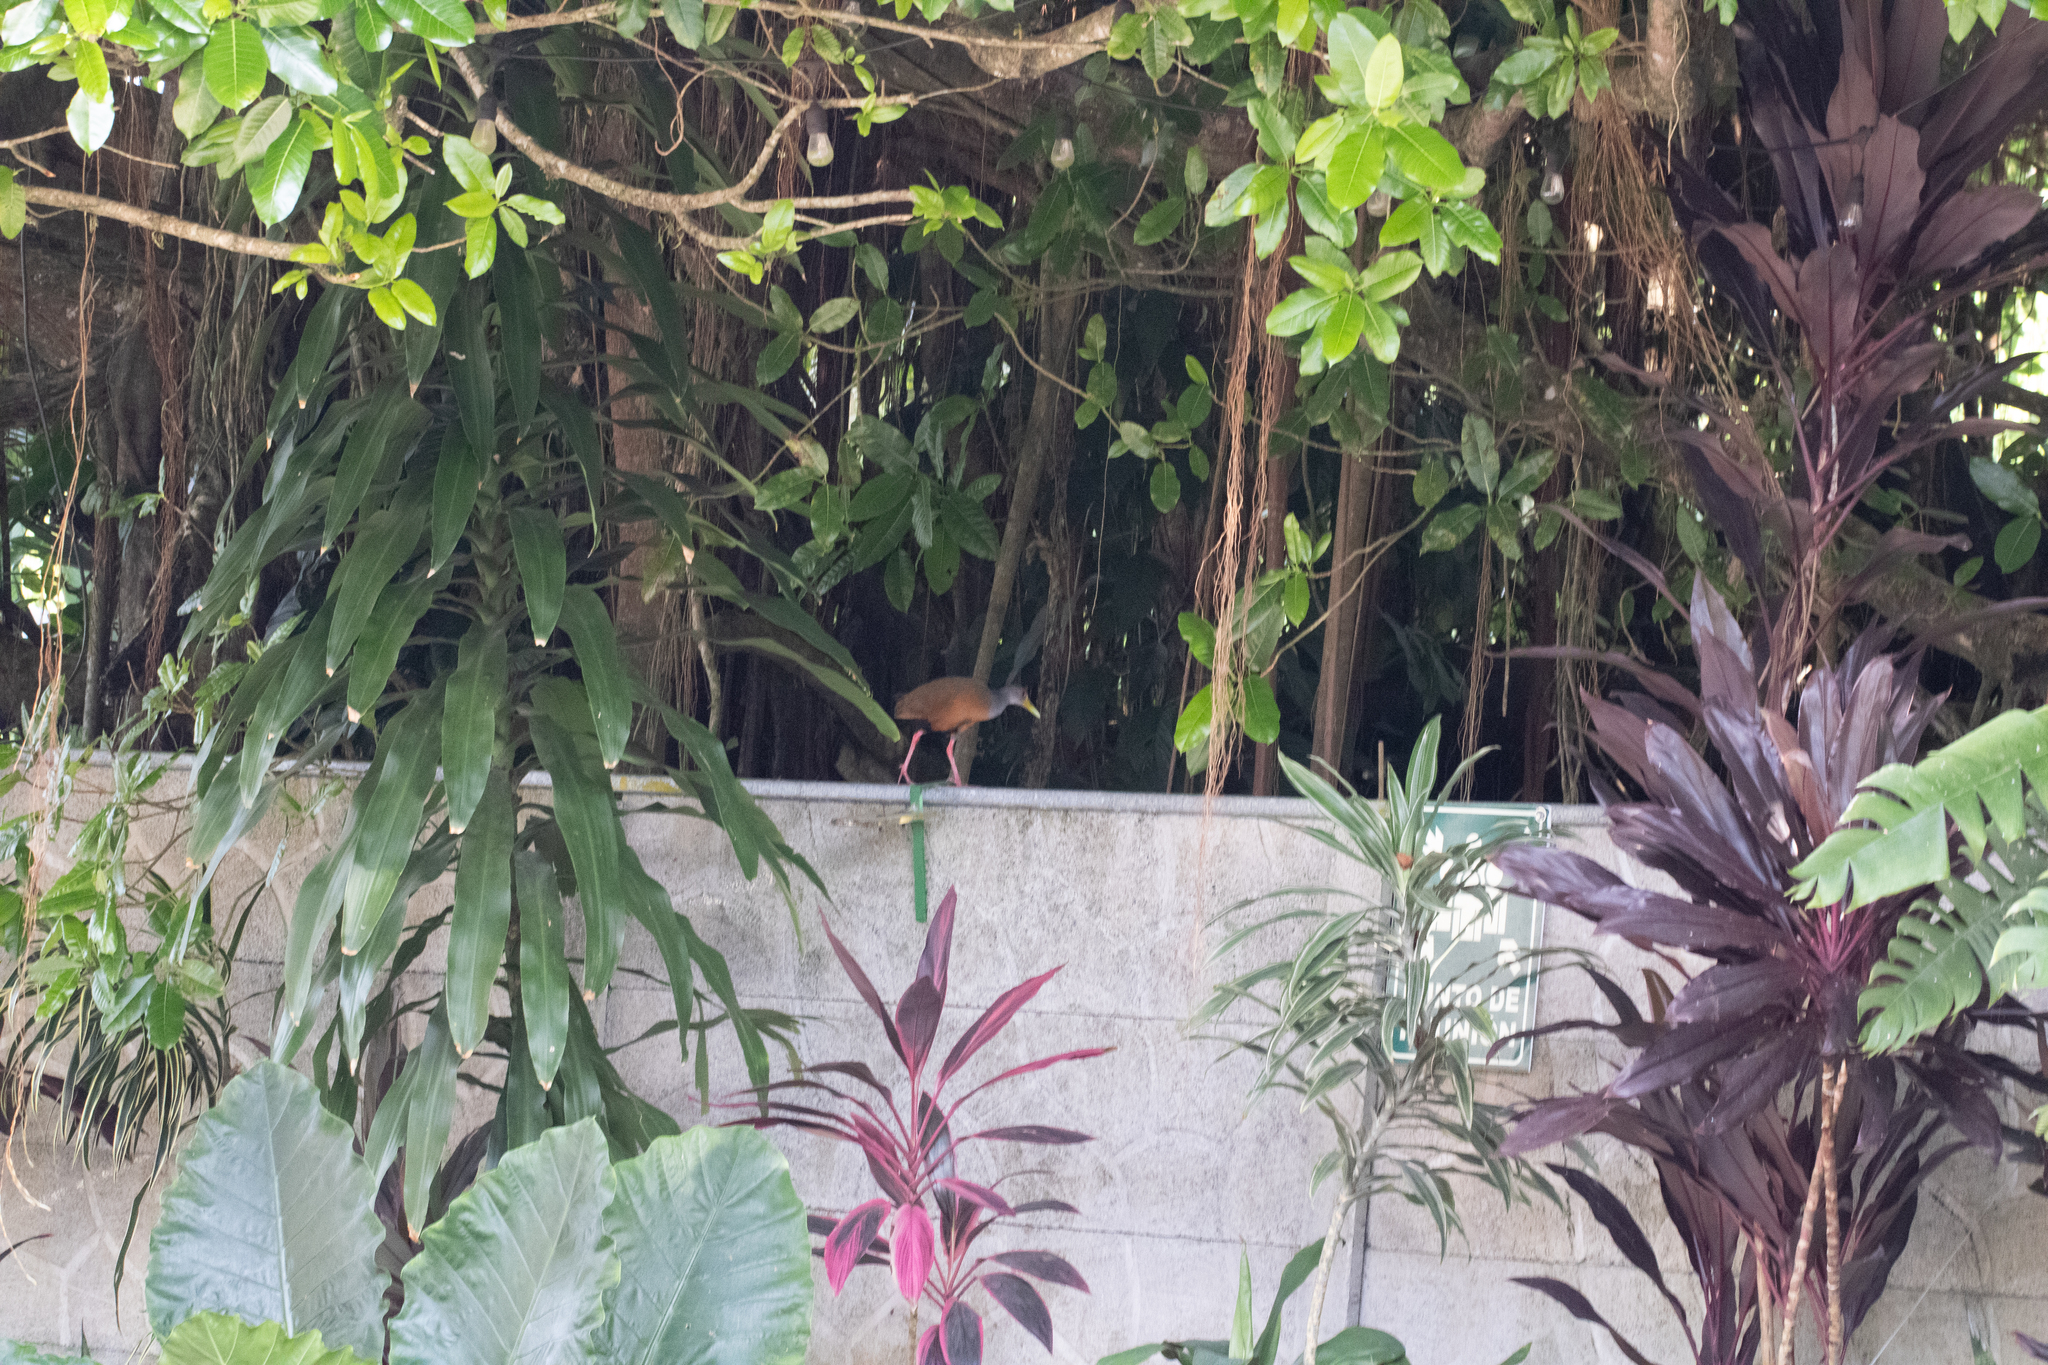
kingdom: Animalia
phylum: Chordata
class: Aves
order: Gruiformes
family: Rallidae
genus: Aramides
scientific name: Aramides cajanea
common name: Gray-necked wood-rail
